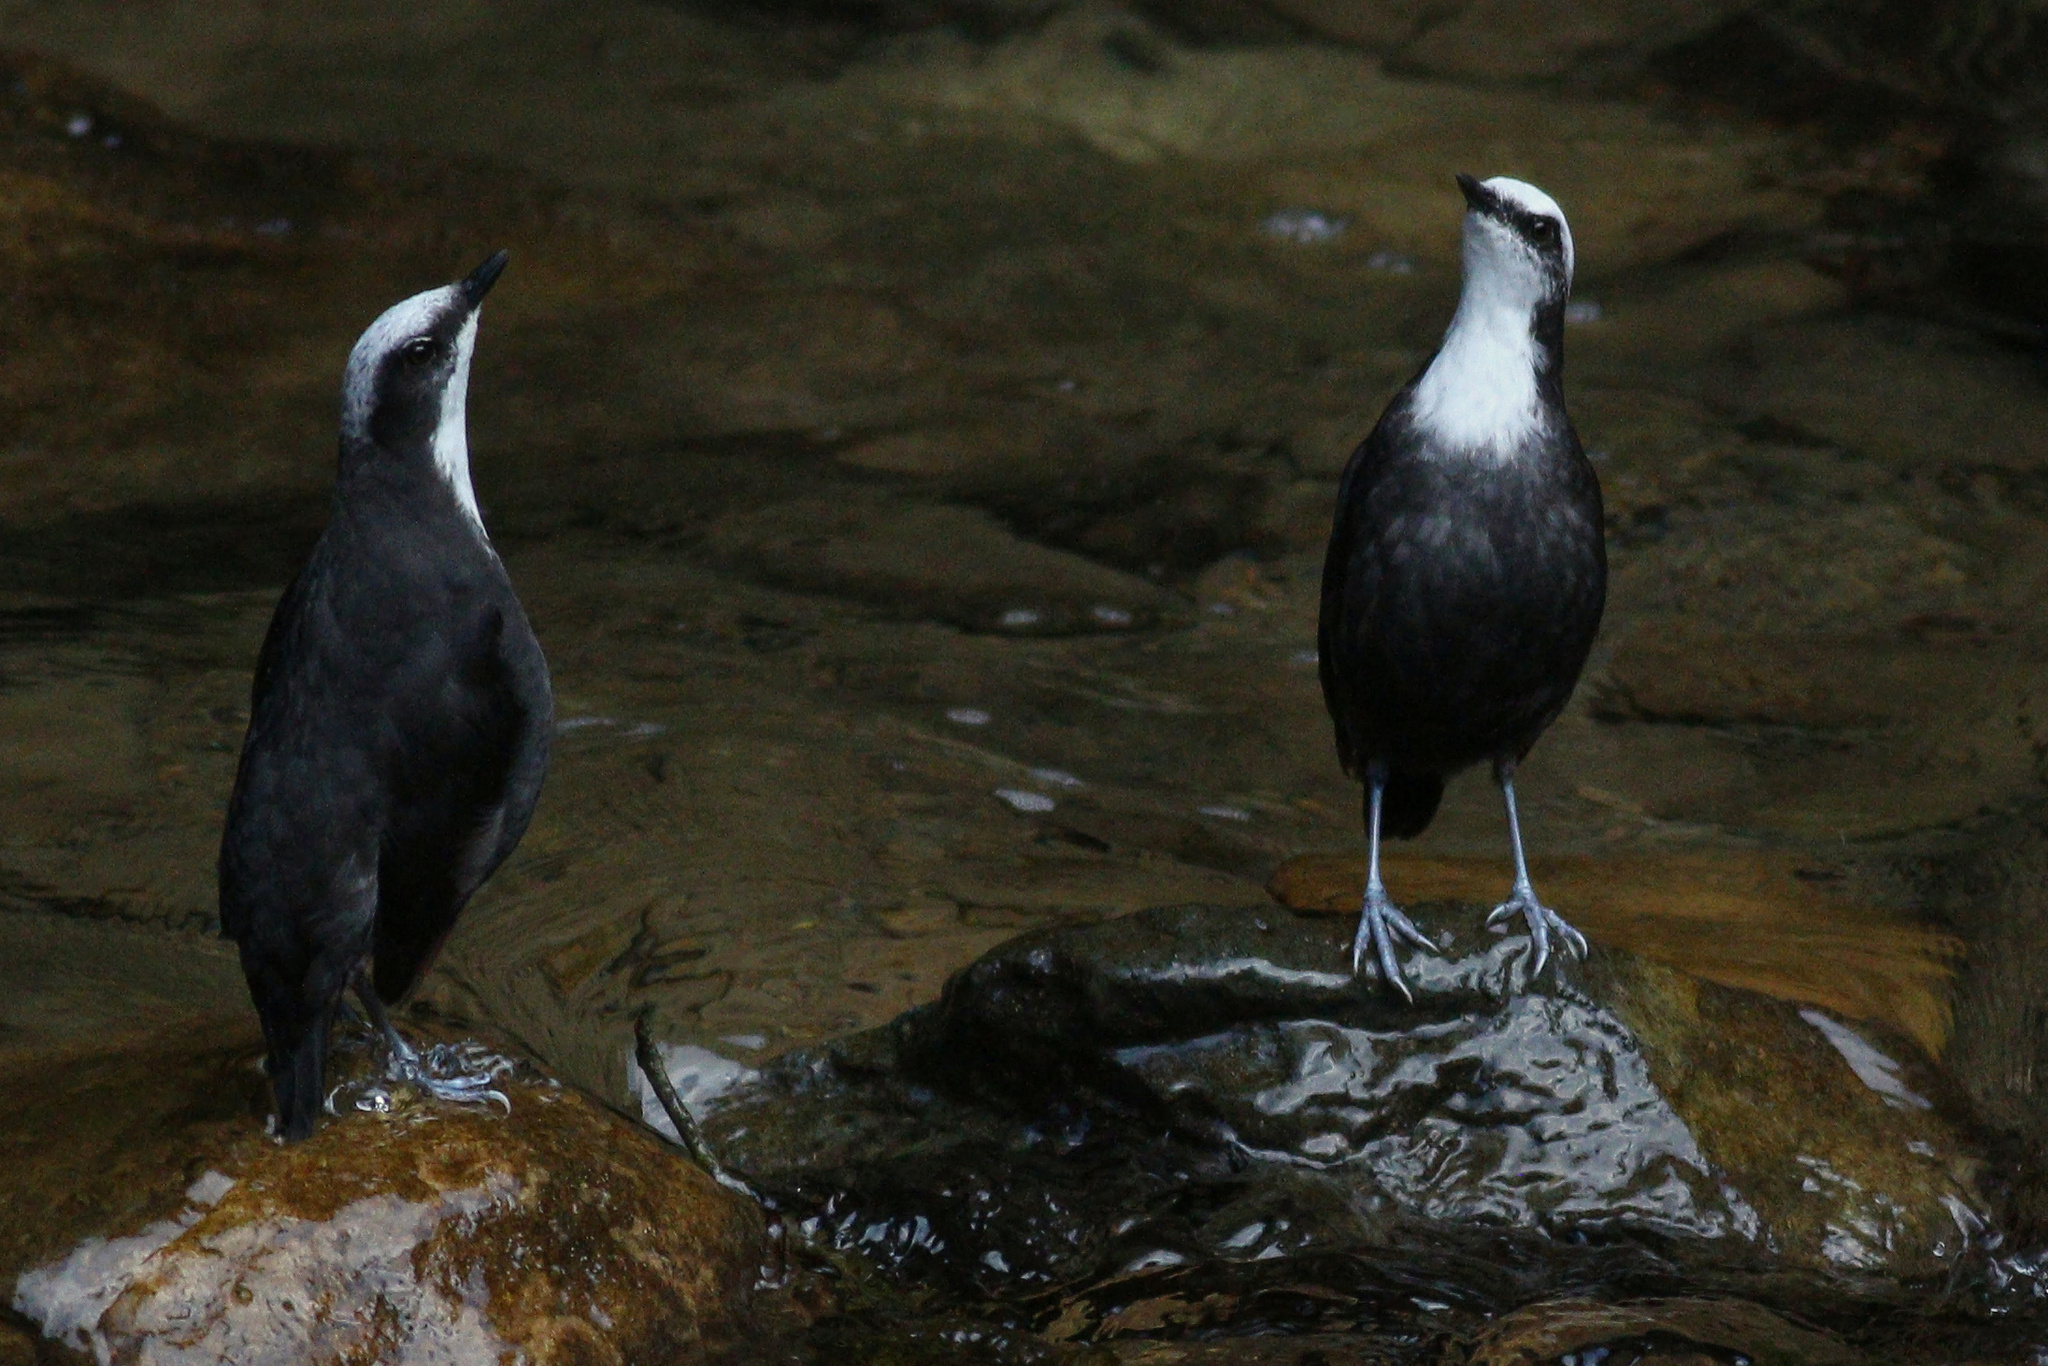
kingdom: Animalia
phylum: Chordata
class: Aves
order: Passeriformes
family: Cinclidae
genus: Cinclus
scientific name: Cinclus leucocephalus
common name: White-capped dipper
